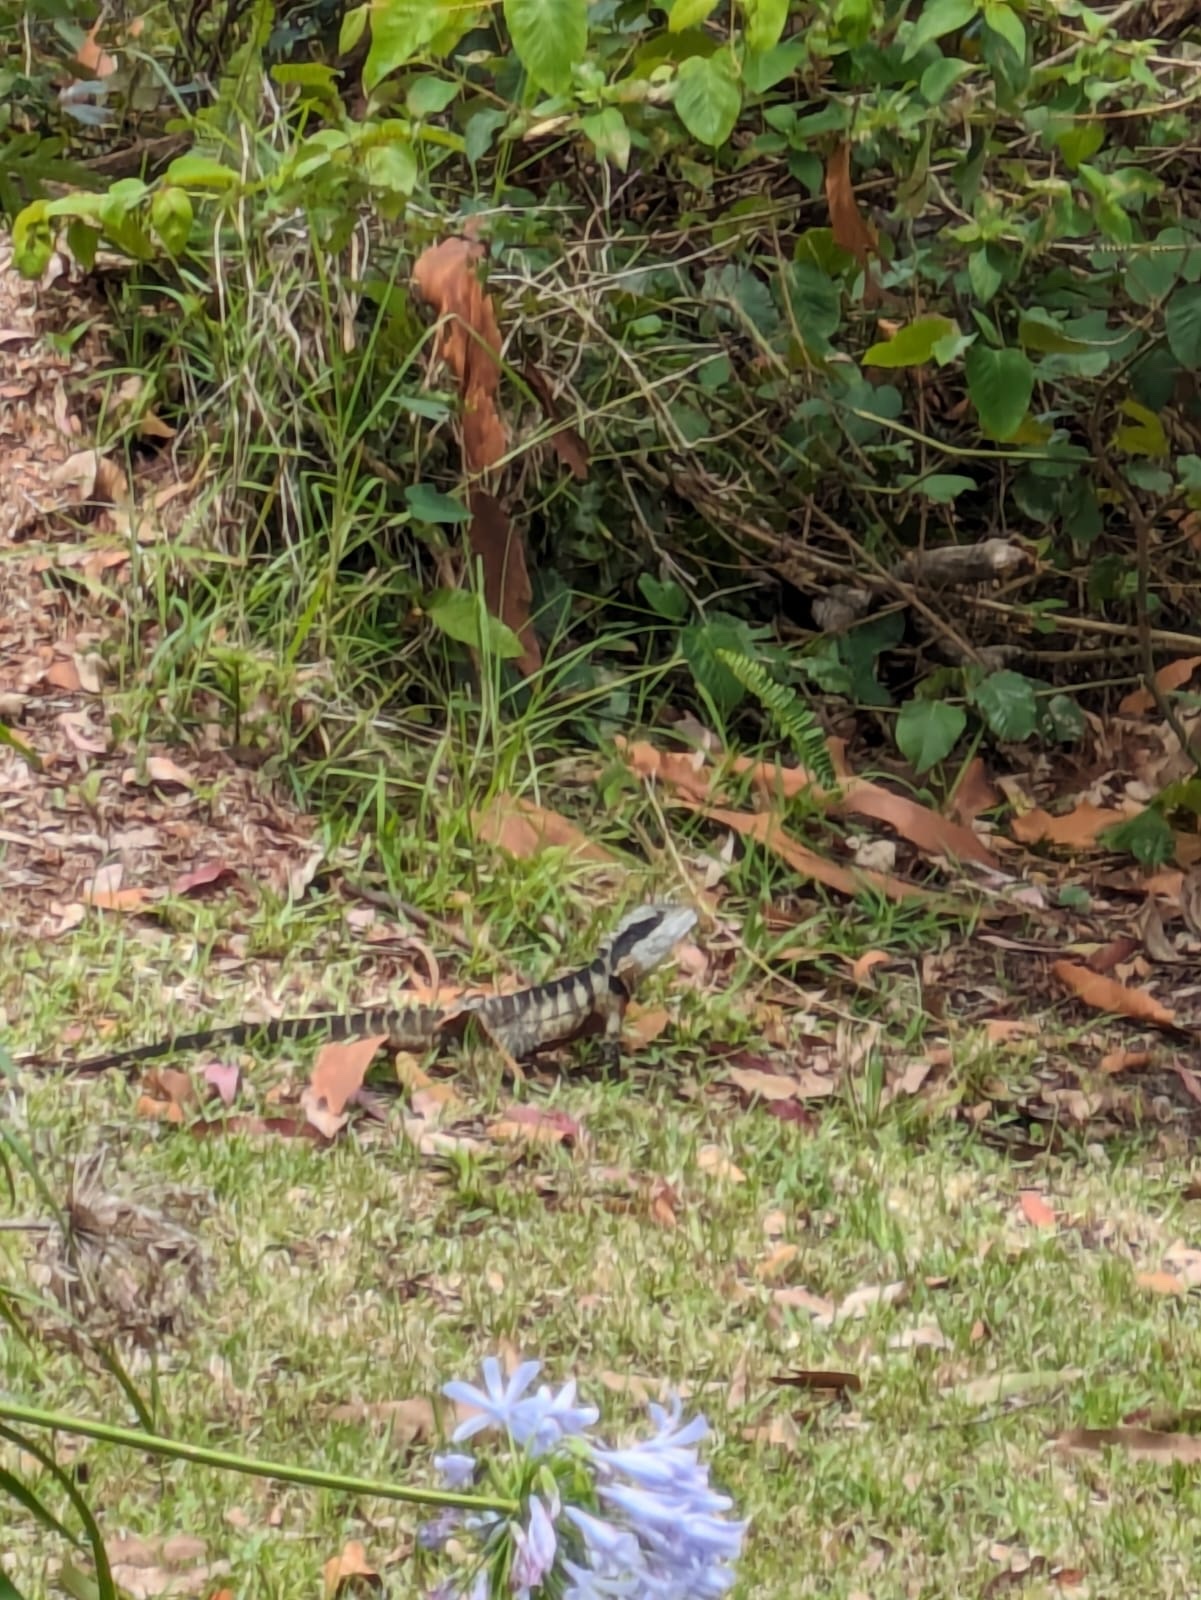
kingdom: Animalia
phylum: Chordata
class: Squamata
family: Agamidae
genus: Intellagama
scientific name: Intellagama lesueurii
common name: Eastern water dragon
